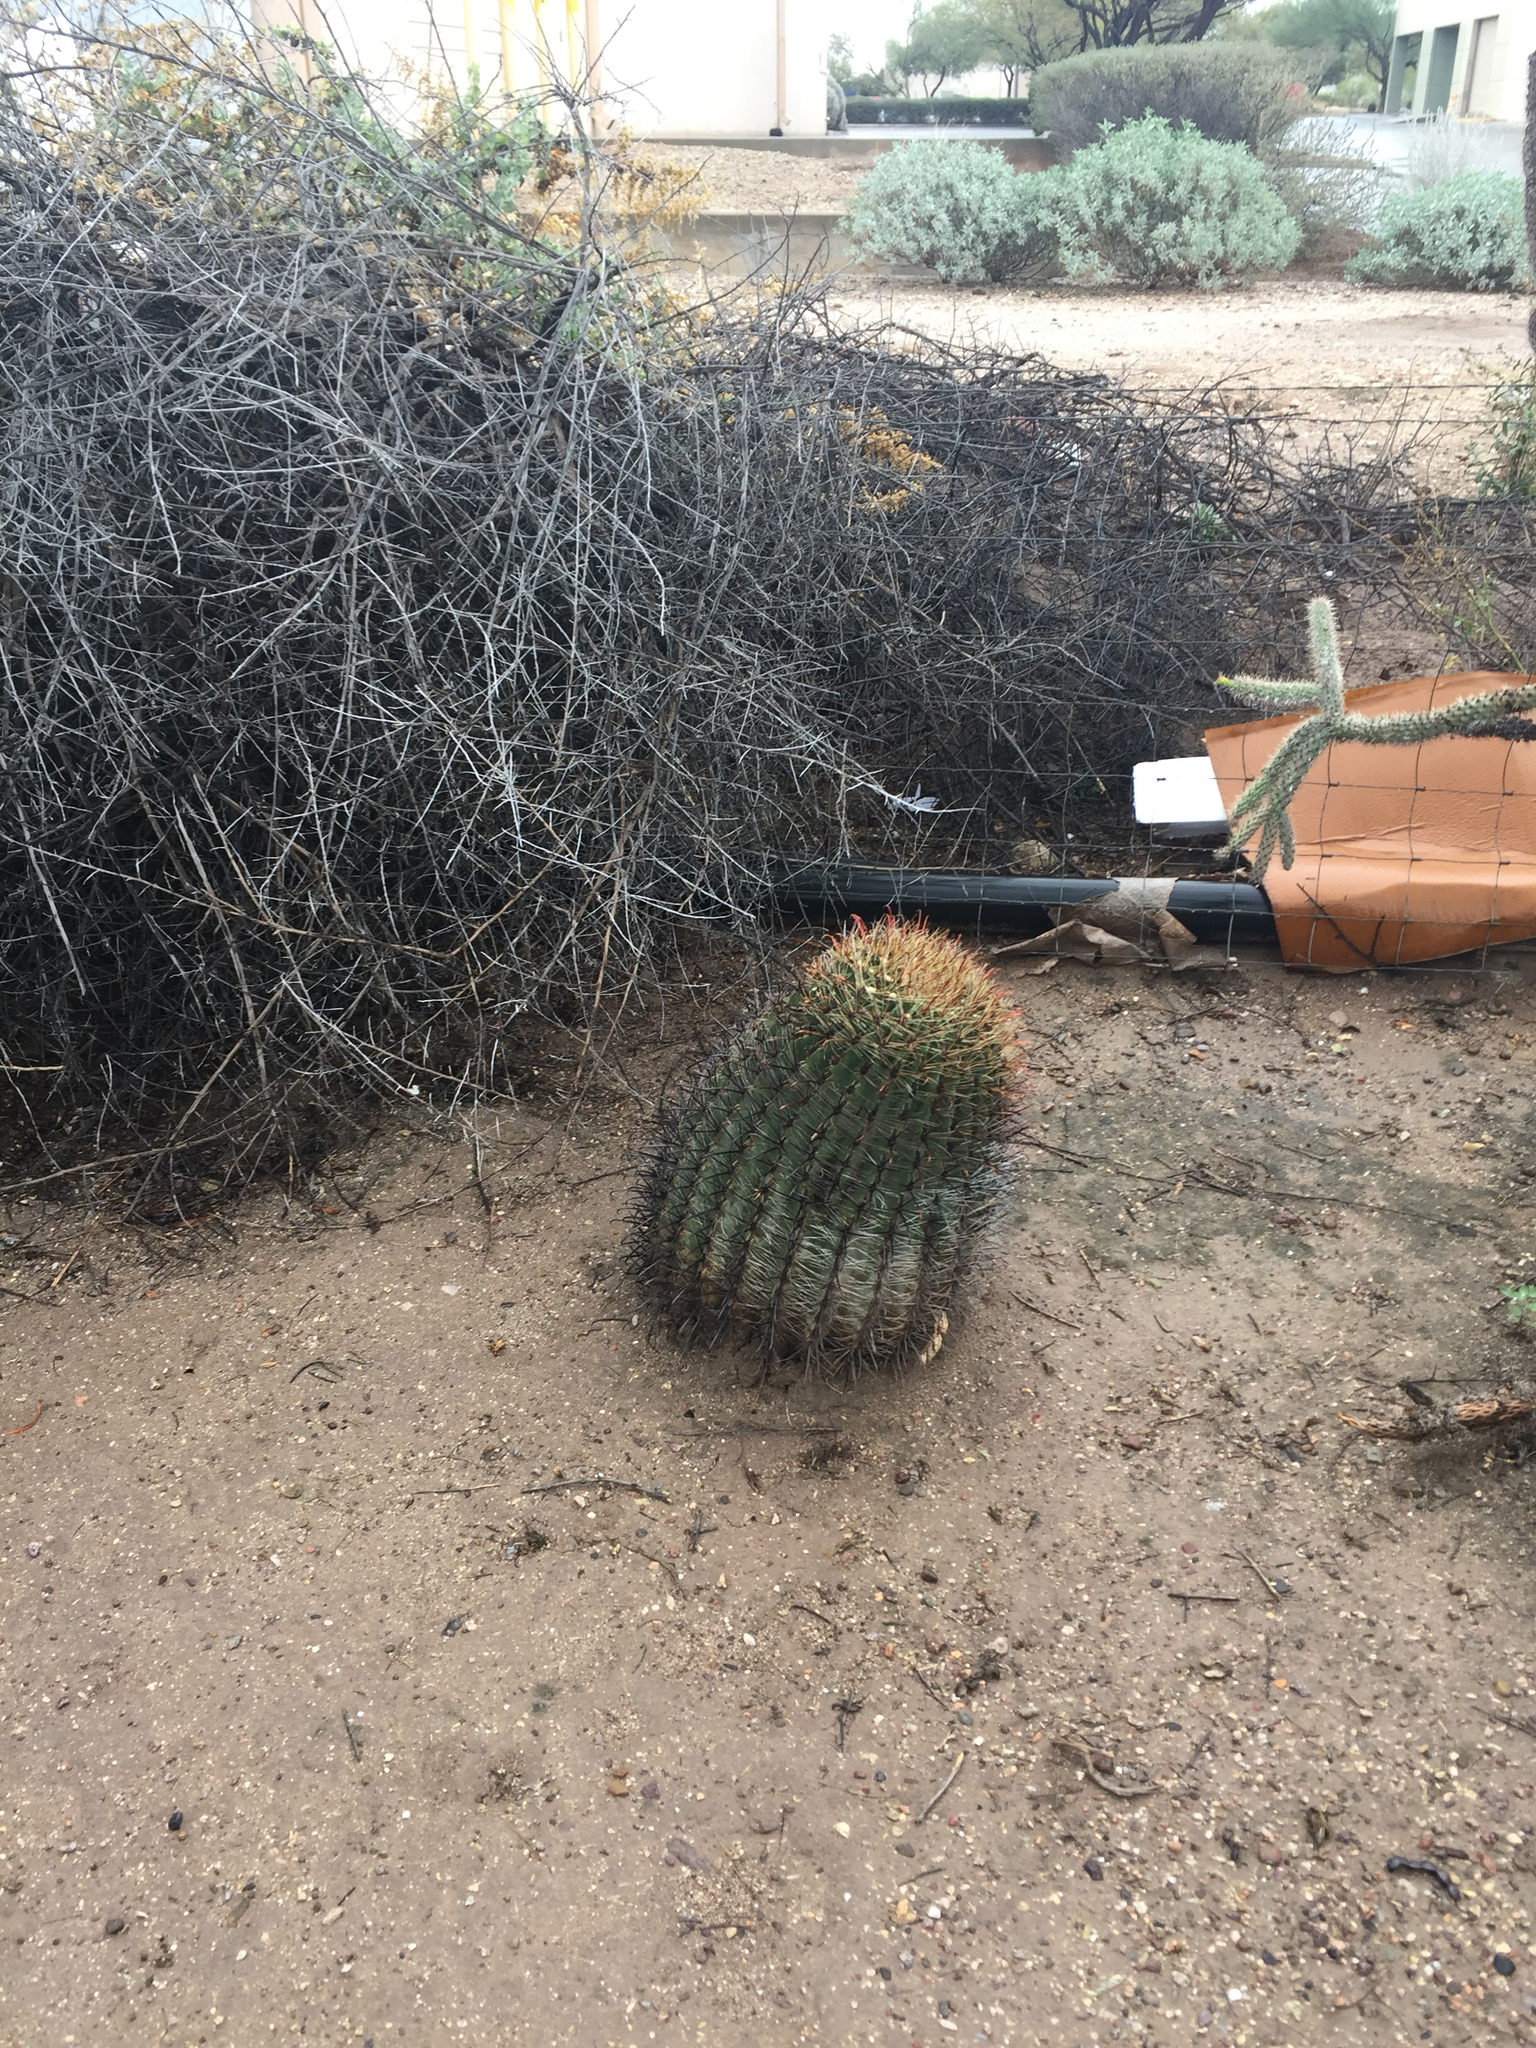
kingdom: Plantae
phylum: Tracheophyta
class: Magnoliopsida
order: Caryophyllales
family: Cactaceae
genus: Ferocactus
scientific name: Ferocactus wislizeni
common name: Candy barrel cactus
